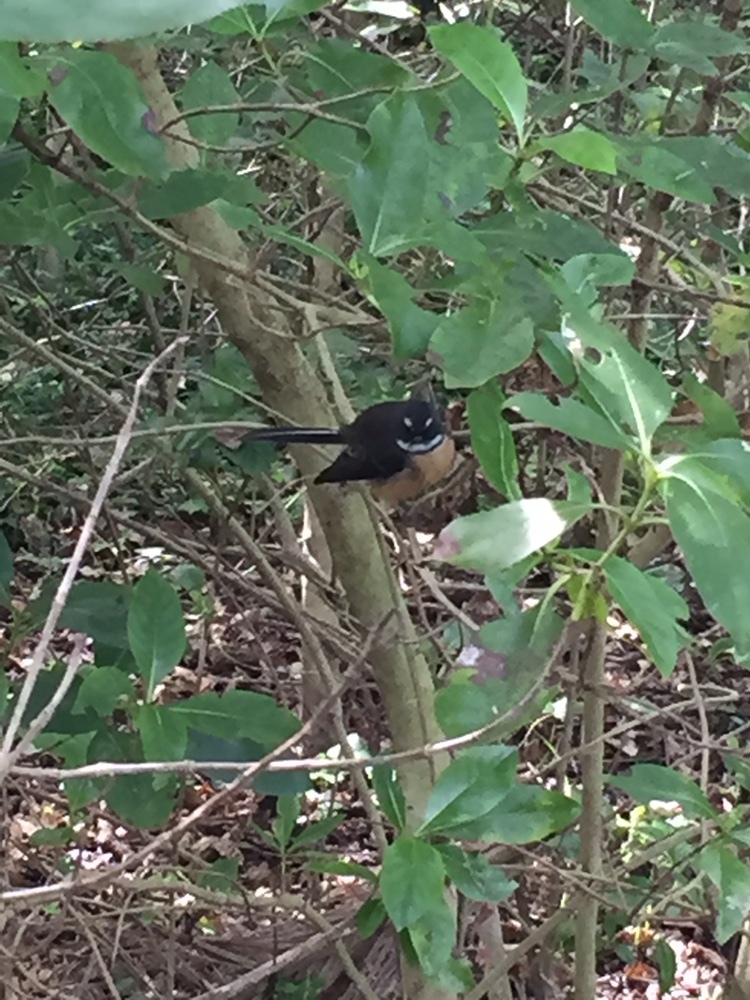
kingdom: Animalia
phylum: Chordata
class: Aves
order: Passeriformes
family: Rhipiduridae
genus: Rhipidura
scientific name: Rhipidura fuliginosa
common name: New zealand fantail
